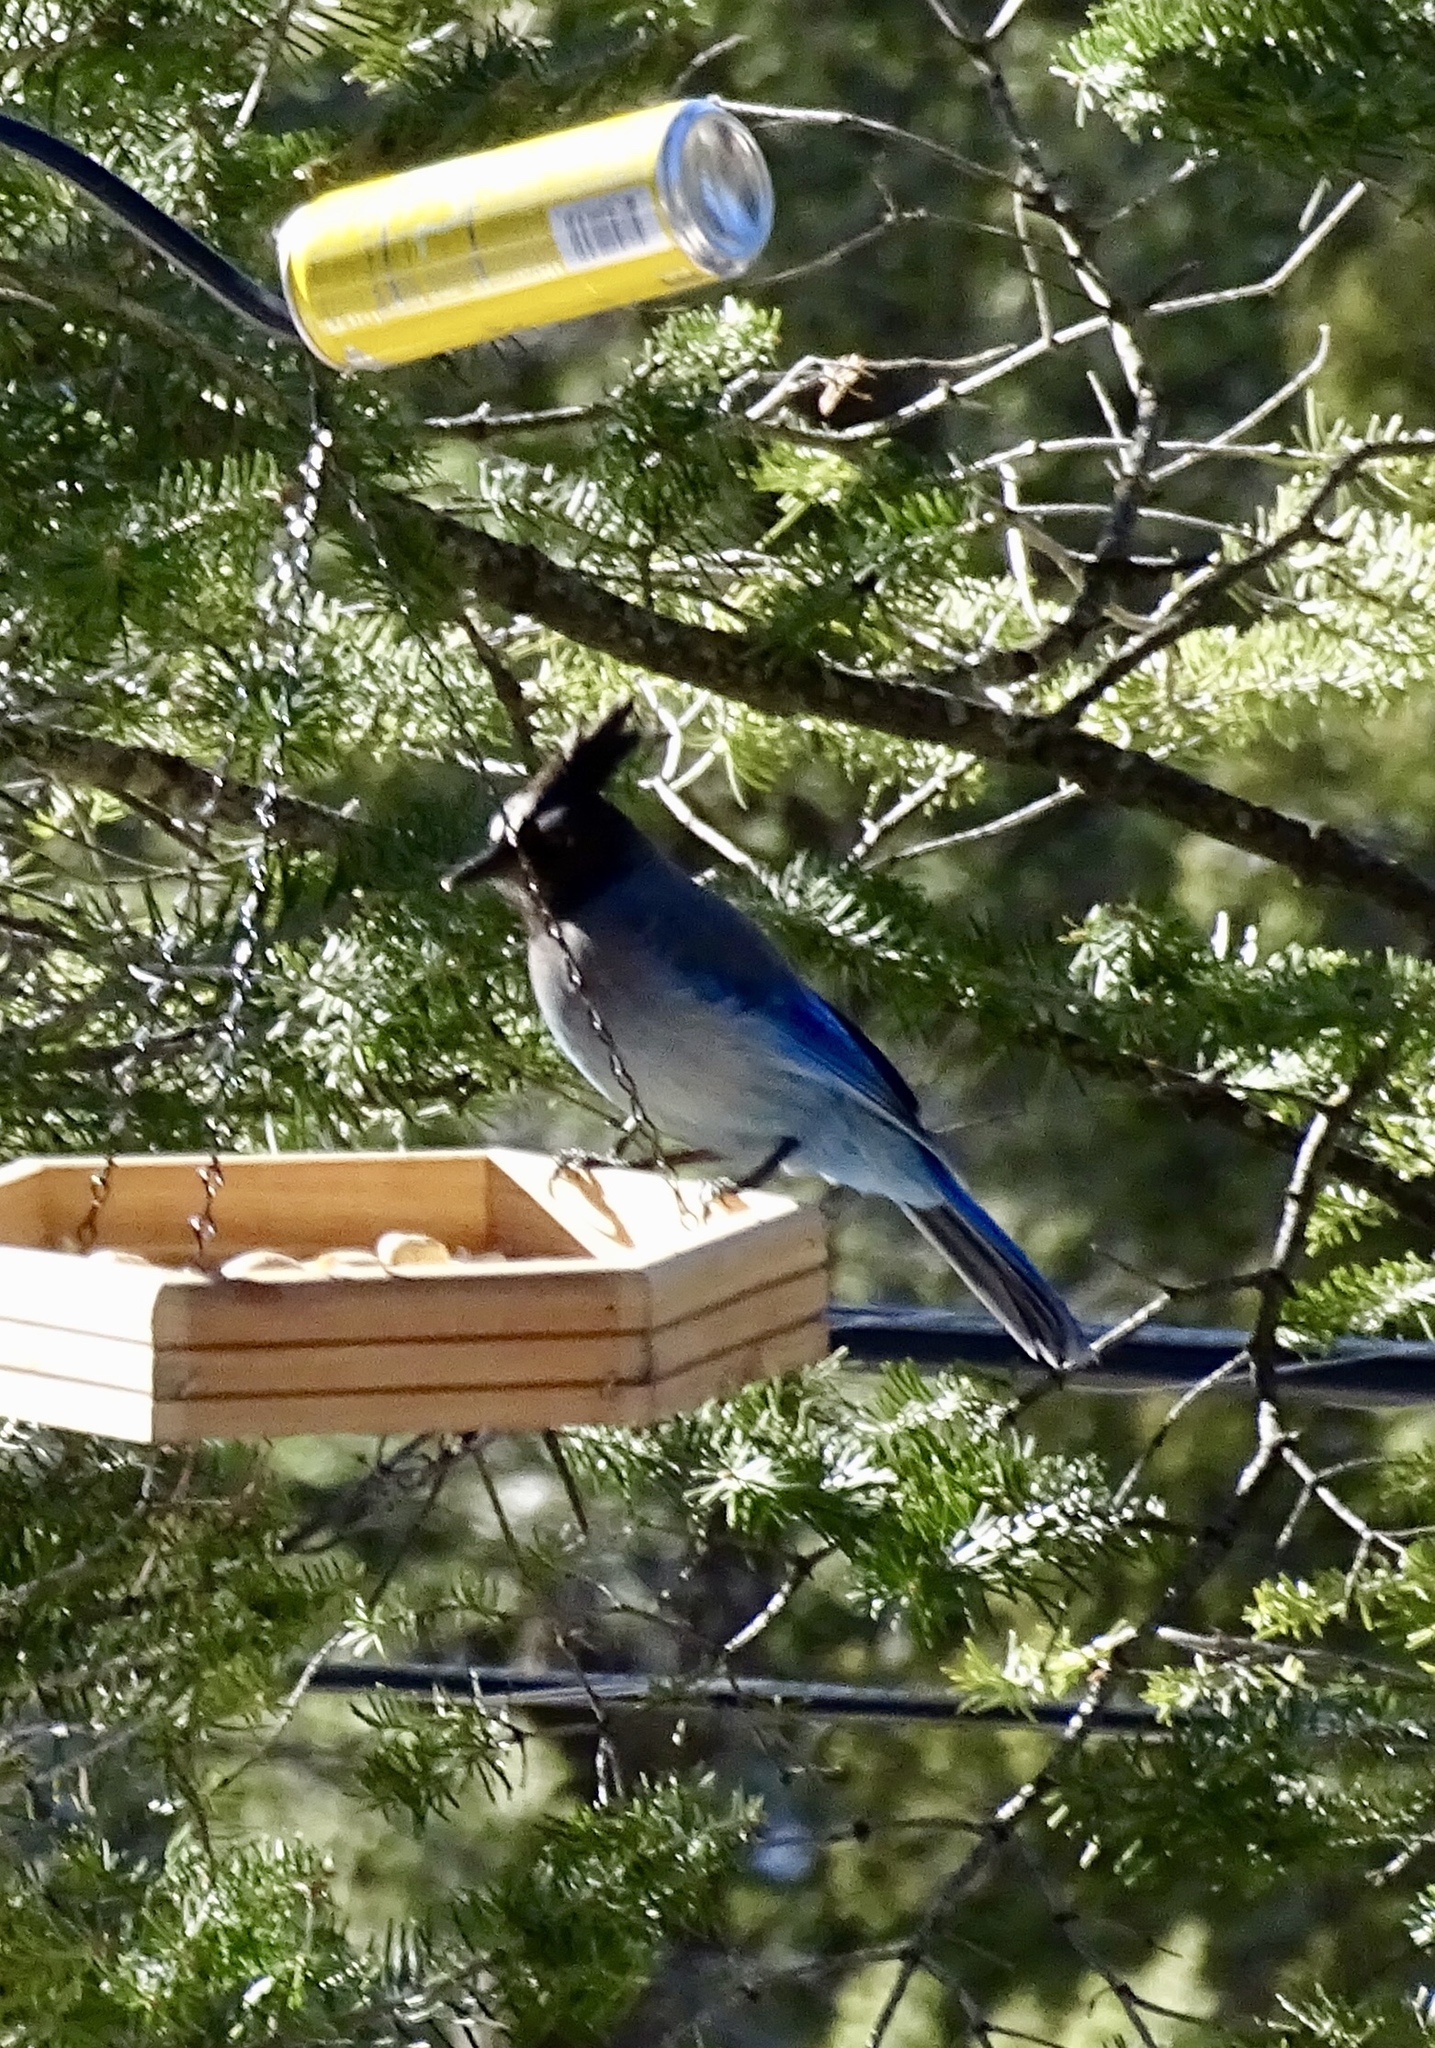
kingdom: Animalia
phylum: Chordata
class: Aves
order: Passeriformes
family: Corvidae
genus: Cyanocitta
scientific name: Cyanocitta stelleri
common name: Steller's jay
